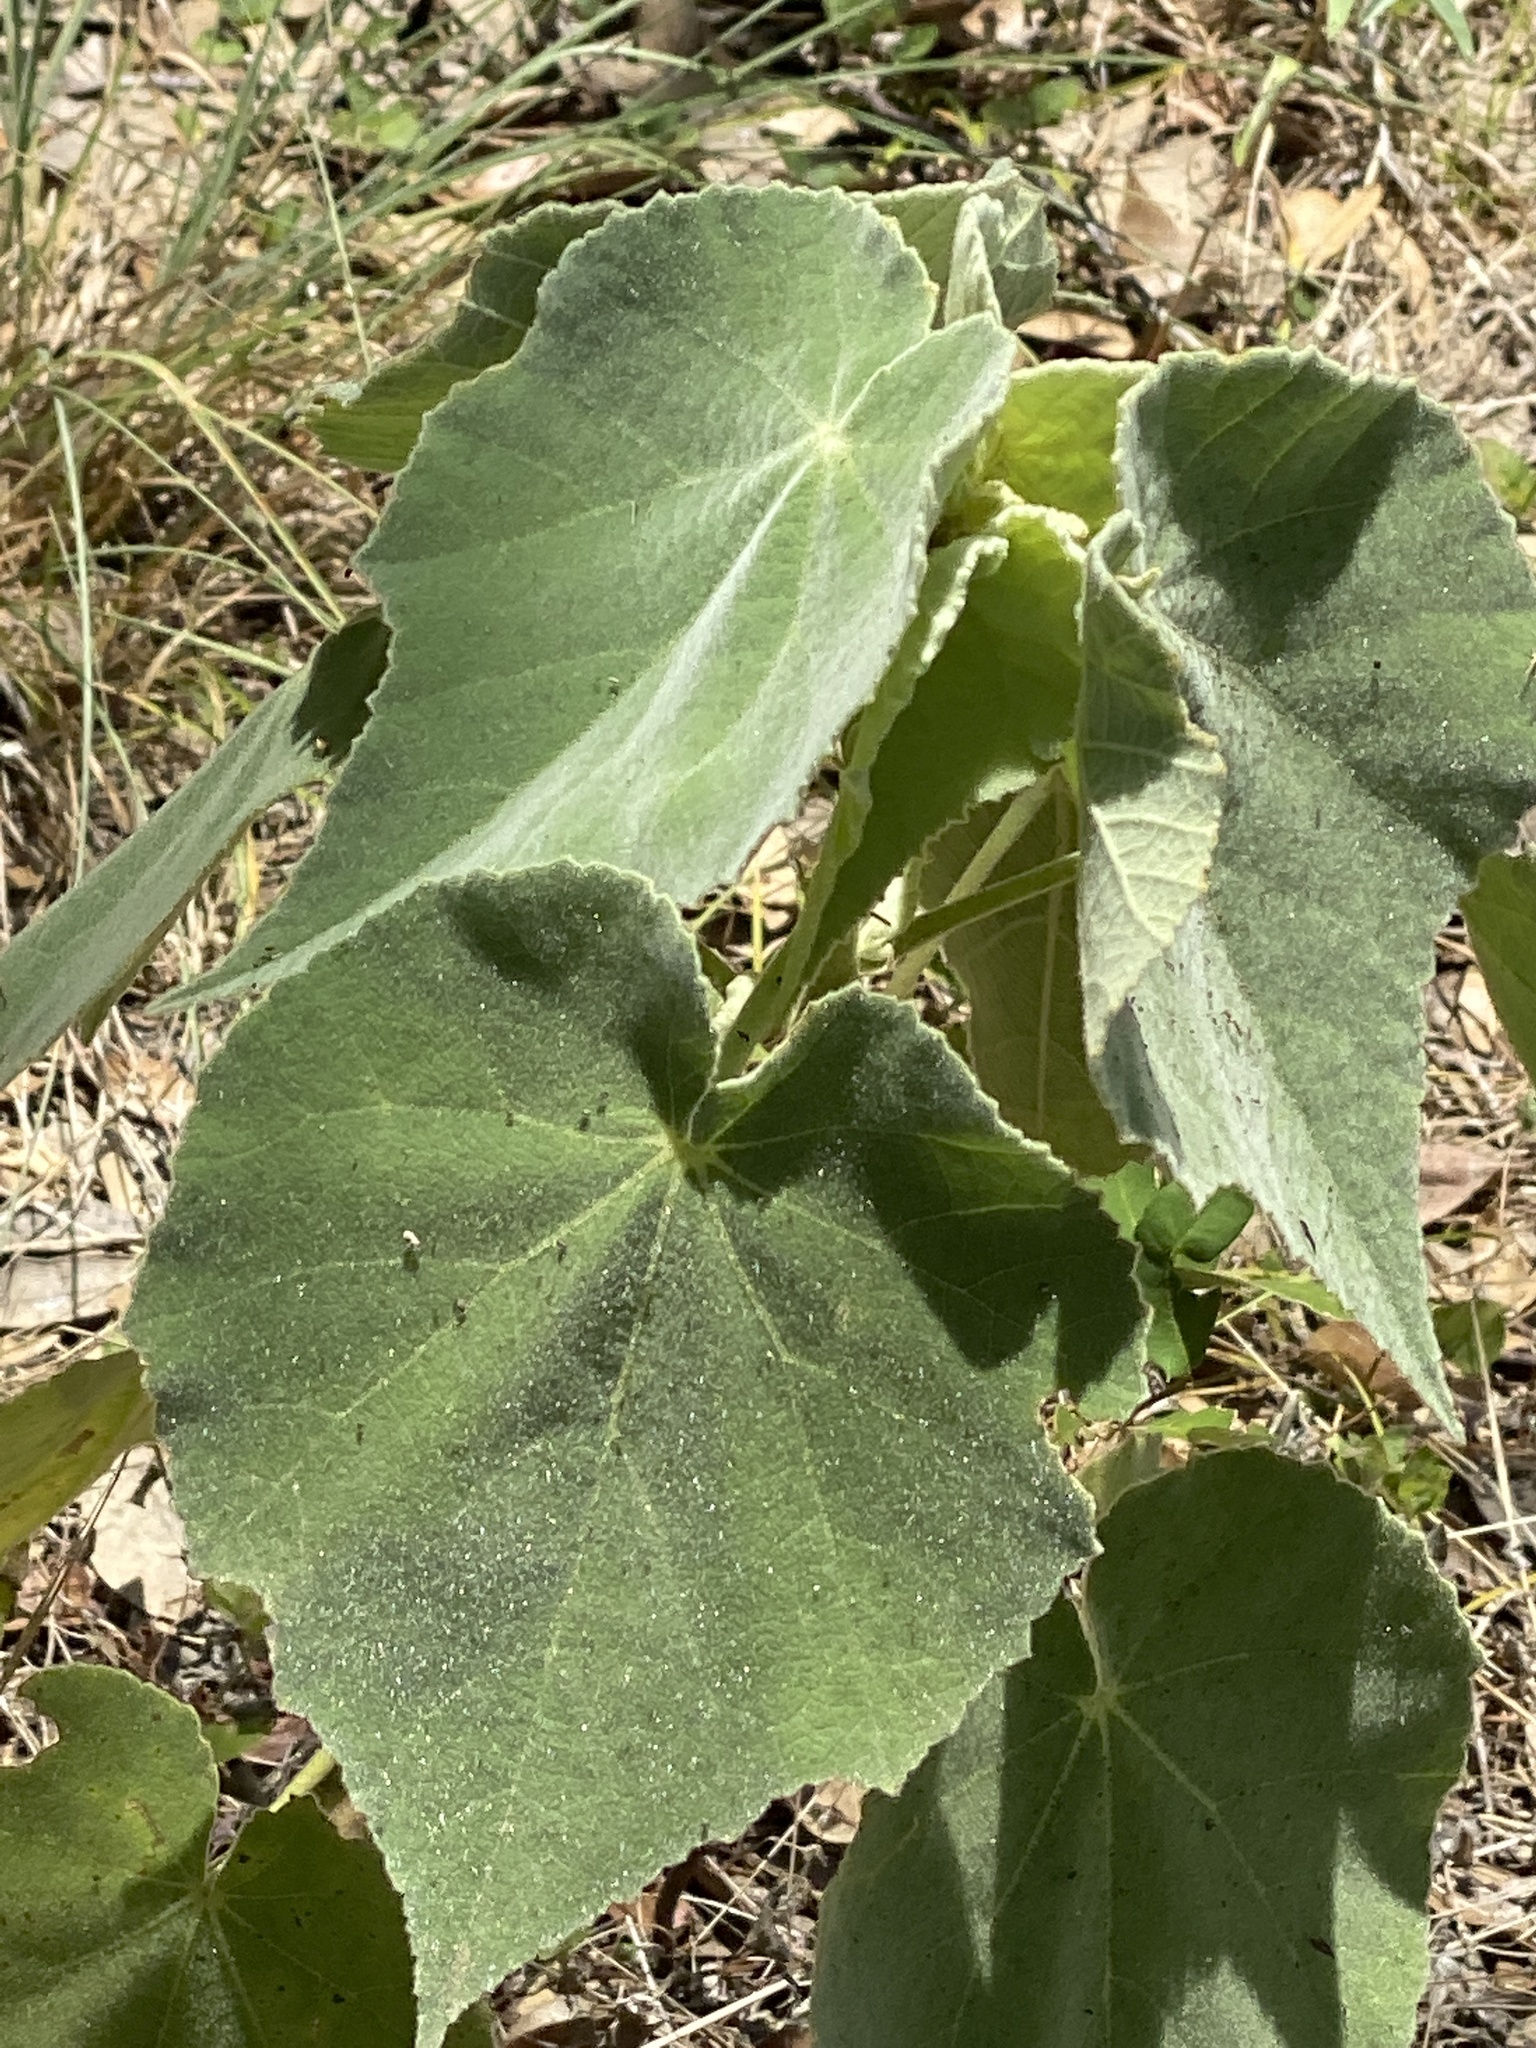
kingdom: Plantae
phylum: Tracheophyta
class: Magnoliopsida
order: Malvales
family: Malvaceae
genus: Allowissadula
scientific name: Allowissadula holosericea
